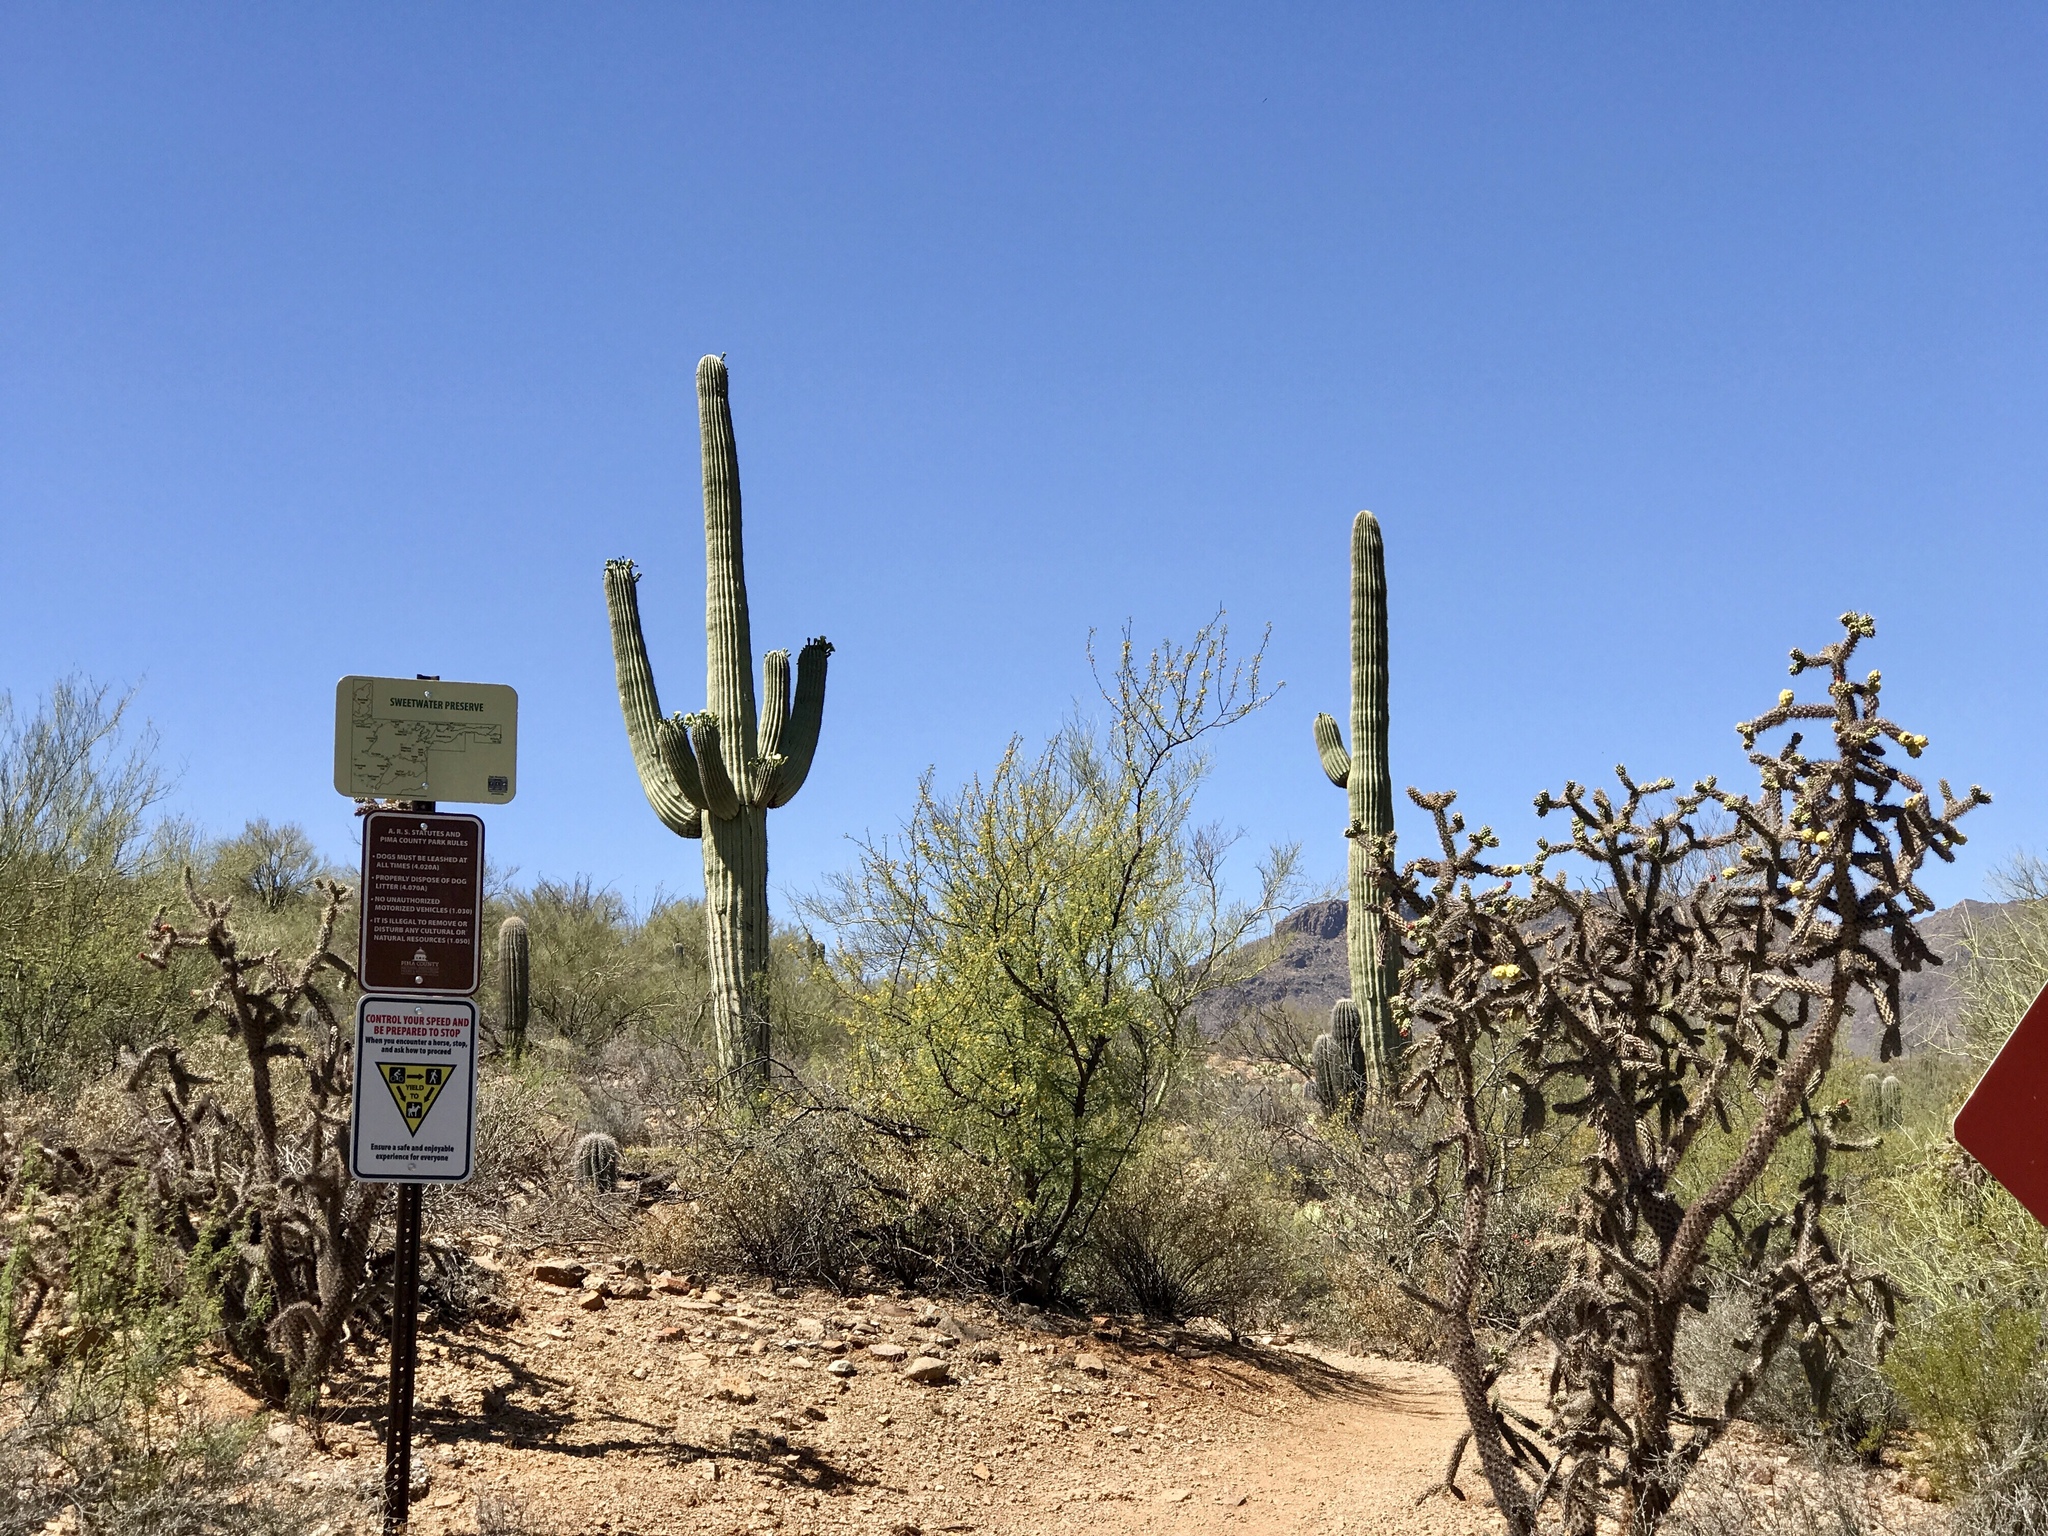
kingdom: Plantae
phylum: Tracheophyta
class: Magnoliopsida
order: Caryophyllales
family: Cactaceae
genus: Carnegiea
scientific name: Carnegiea gigantea
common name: Saguaro
